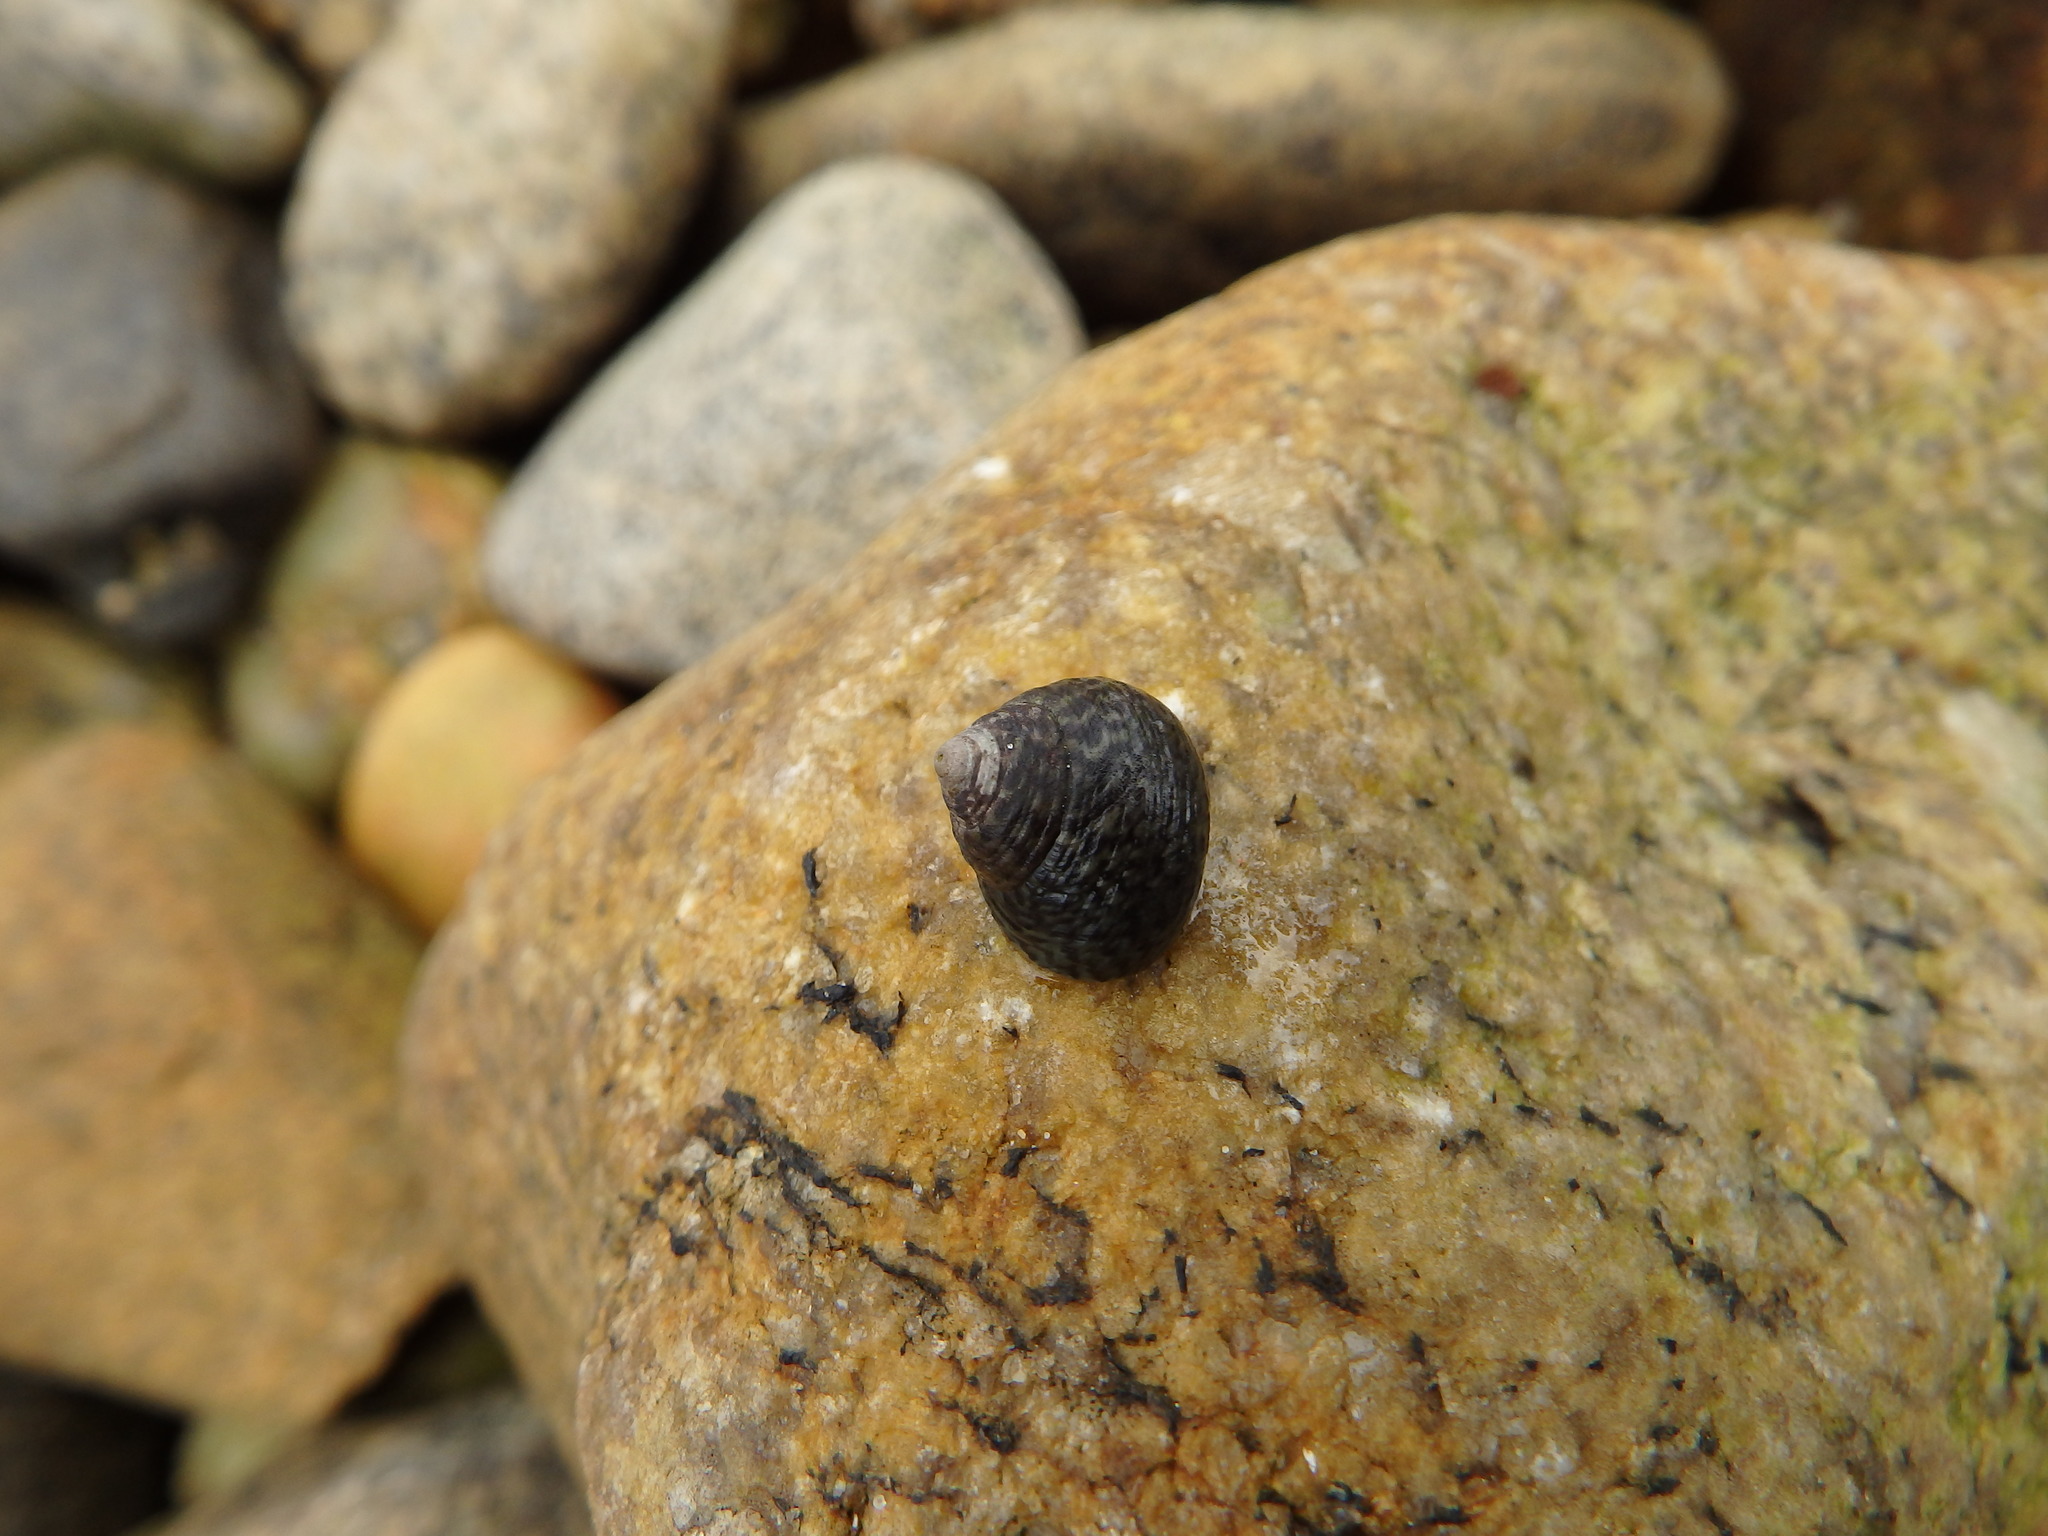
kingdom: Animalia
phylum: Mollusca
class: Gastropoda
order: Trochida
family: Trochidae
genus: Phorcus
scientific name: Phorcus lineatus
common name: Toothed top shell
